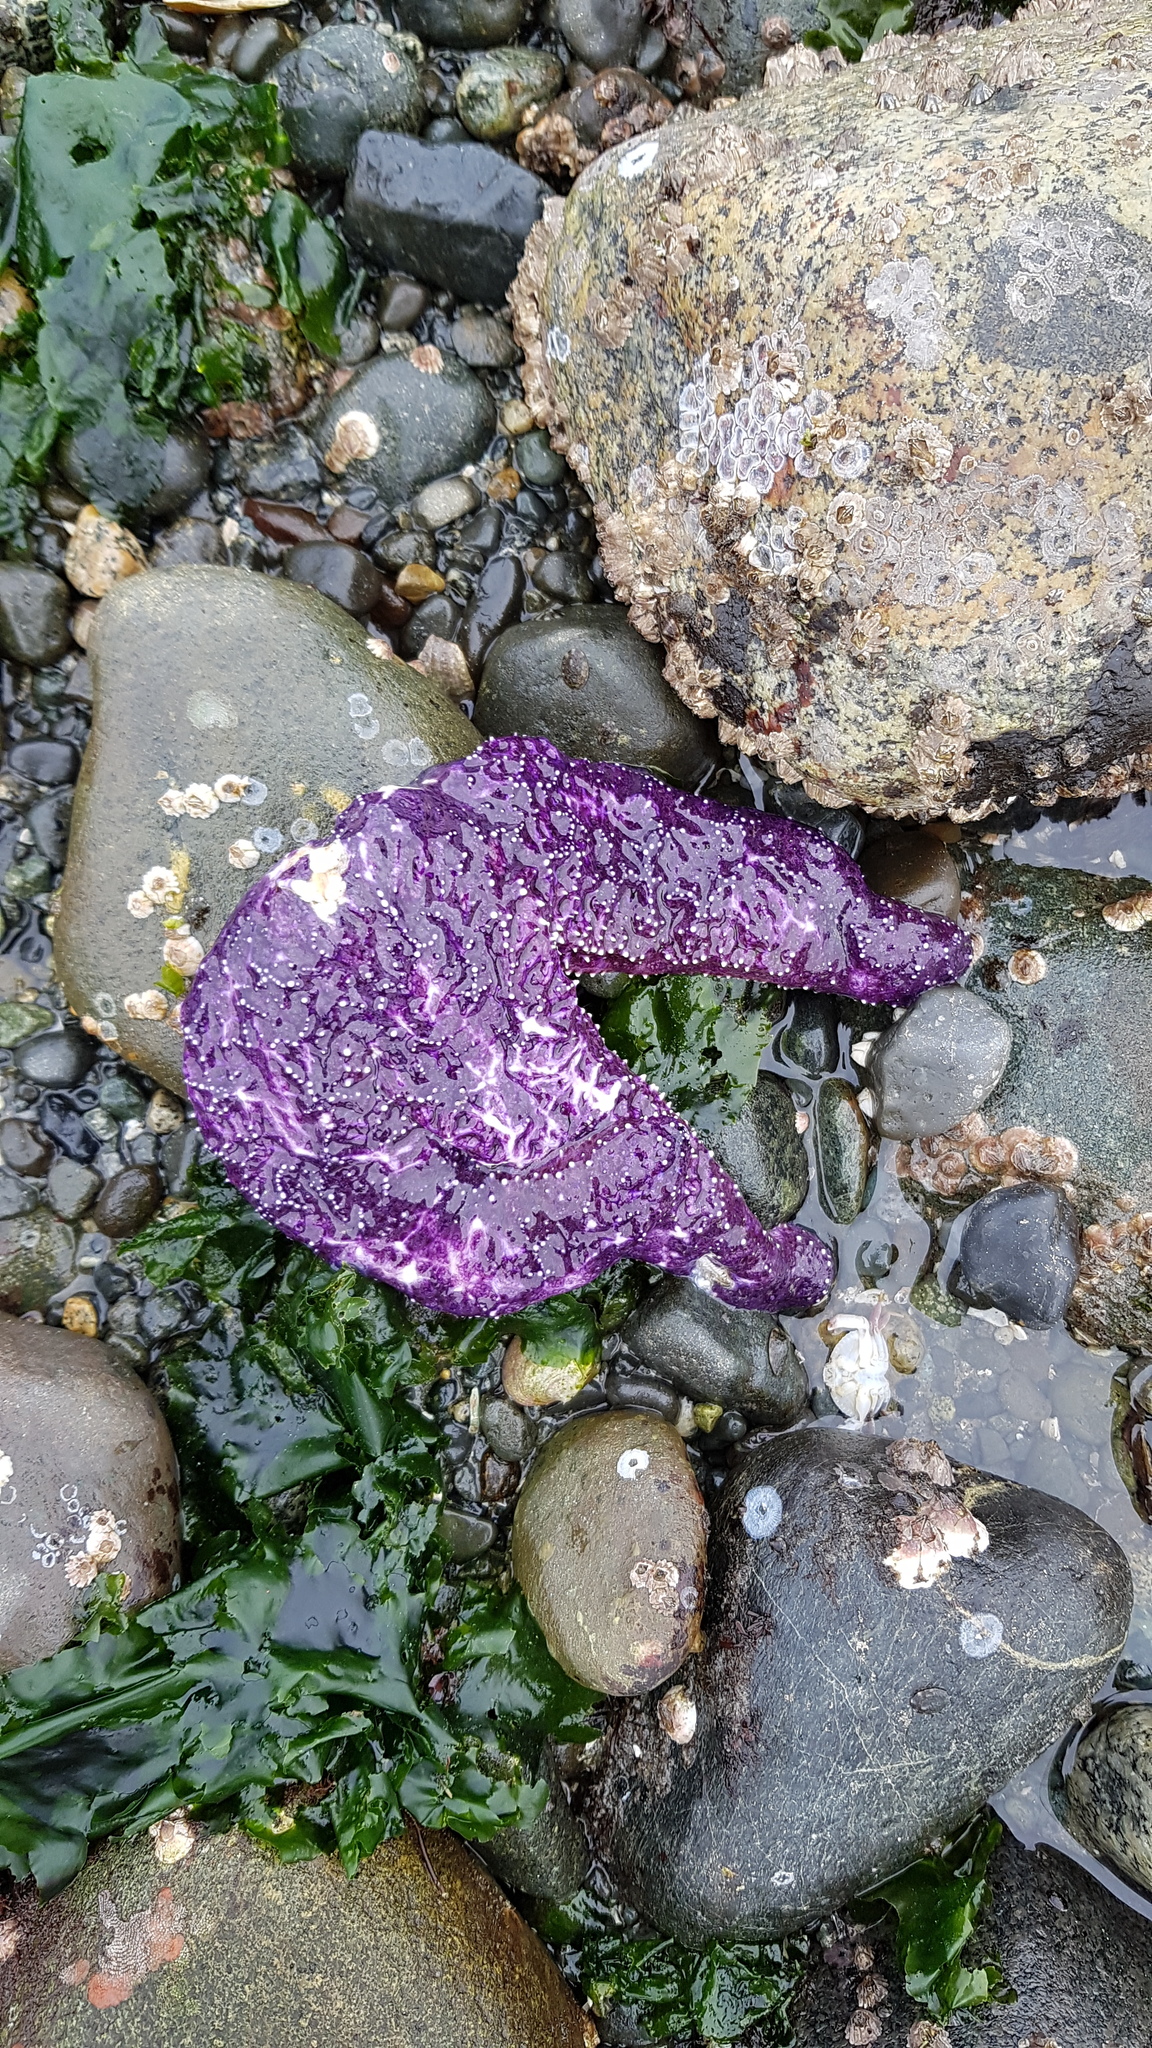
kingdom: Animalia
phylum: Echinodermata
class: Asteroidea
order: Forcipulatida
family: Asteriidae
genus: Pisaster
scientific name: Pisaster ochraceus
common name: Ochre stars
